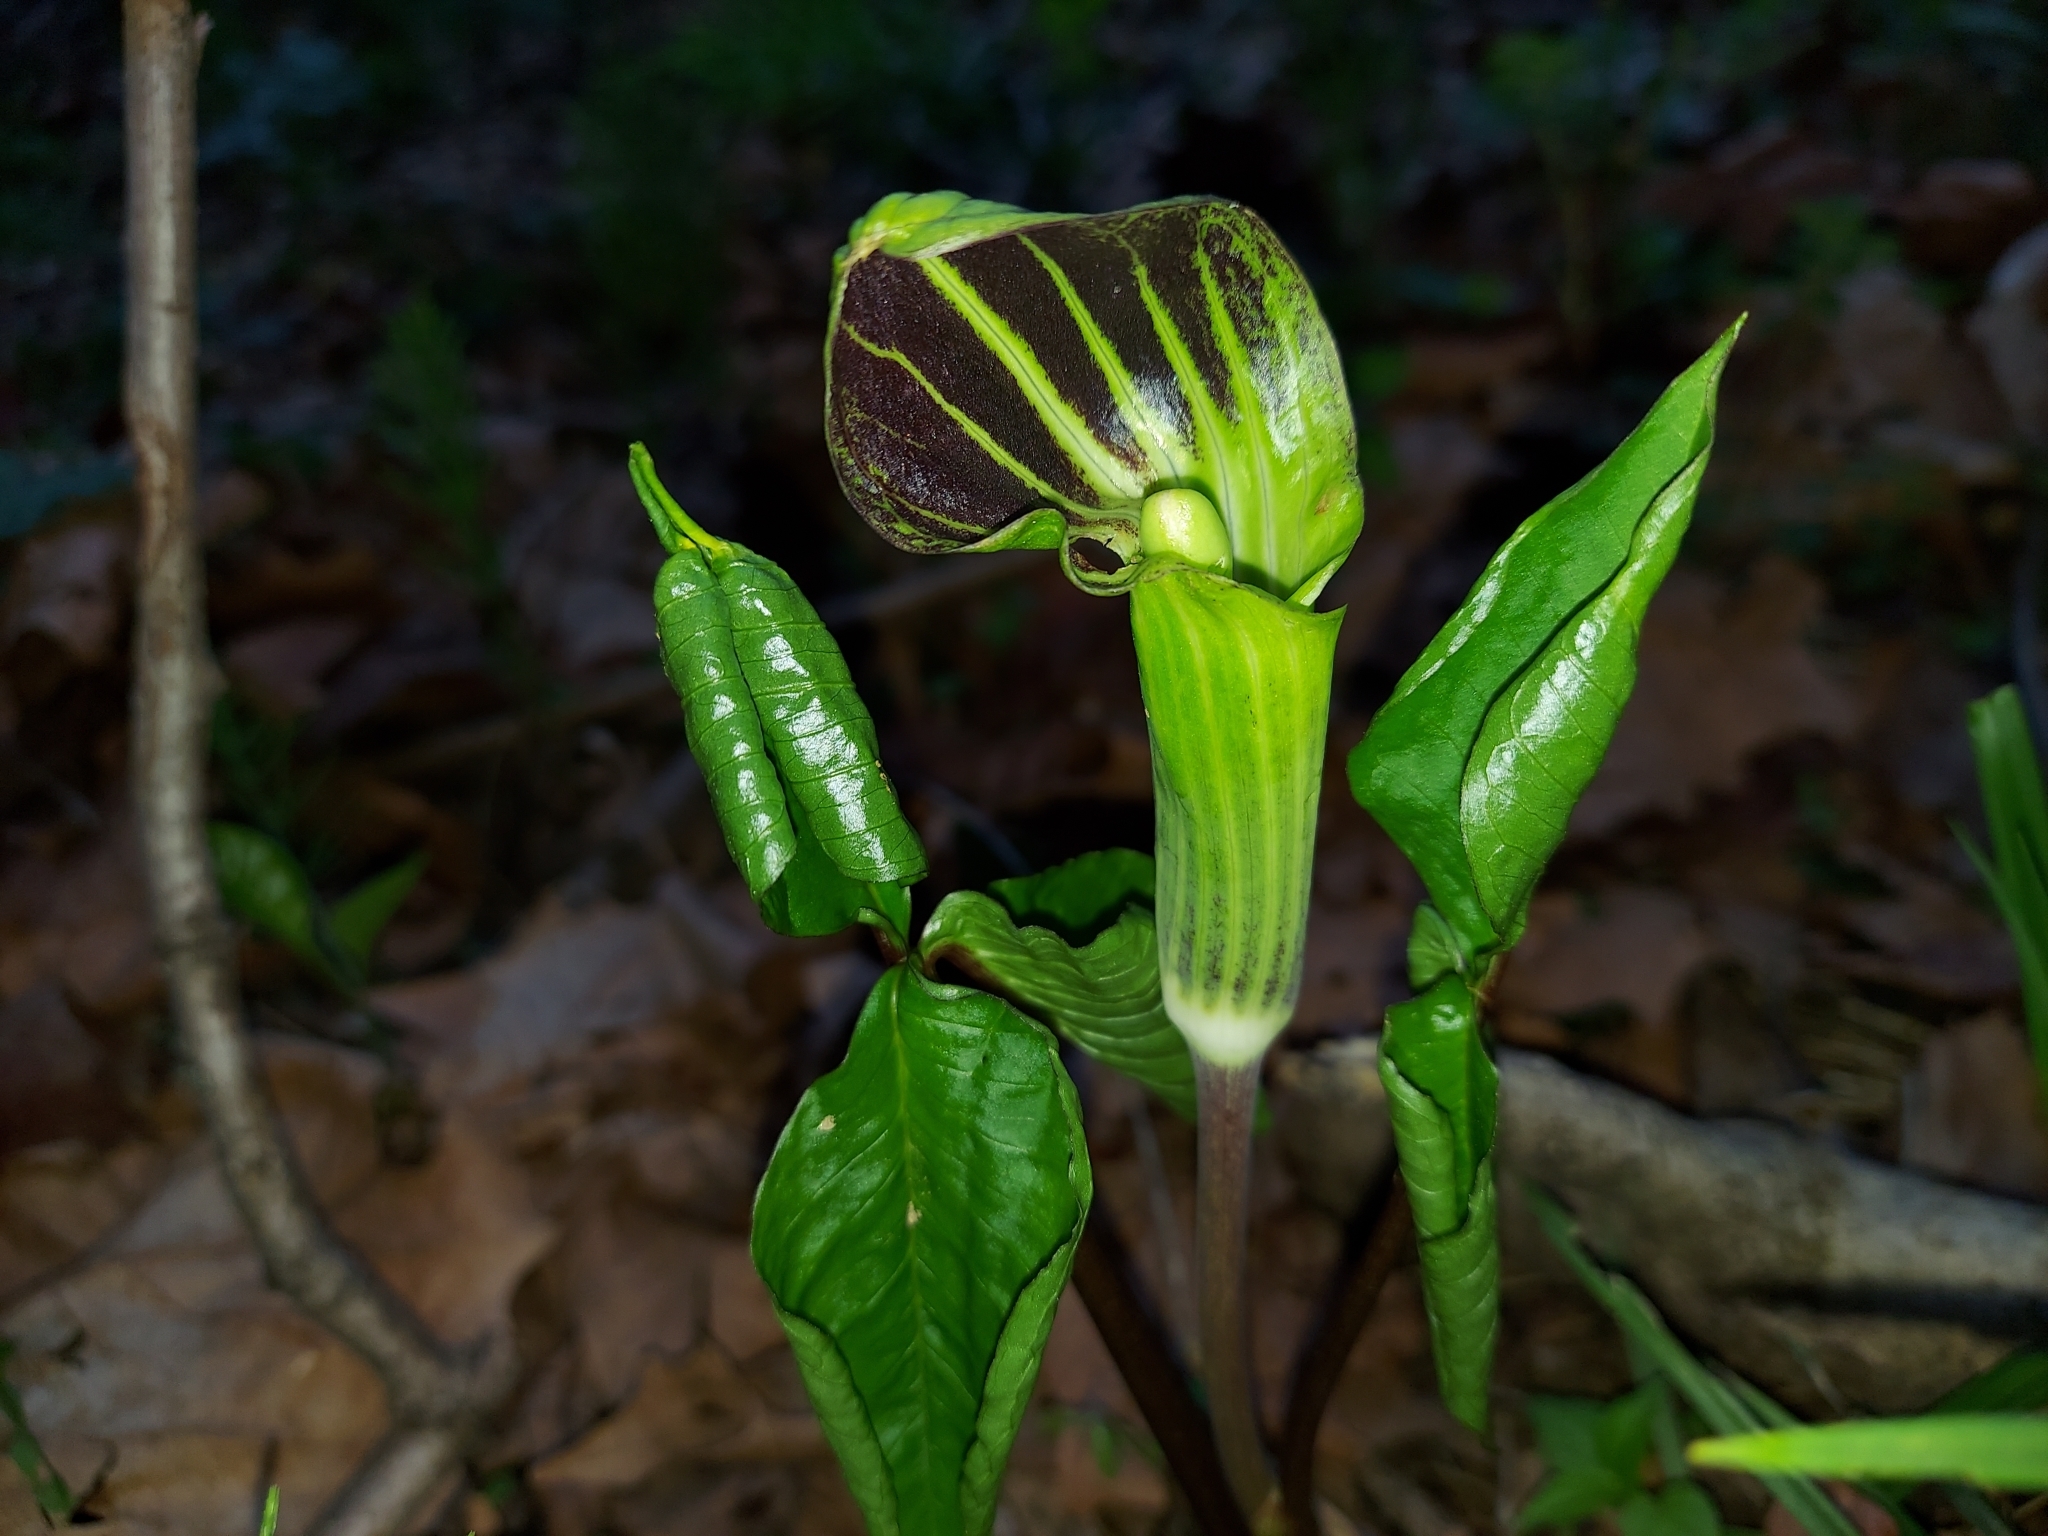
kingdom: Plantae
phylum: Tracheophyta
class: Liliopsida
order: Alismatales
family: Araceae
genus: Arisaema
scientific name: Arisaema triphyllum
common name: Jack-in-the-pulpit
